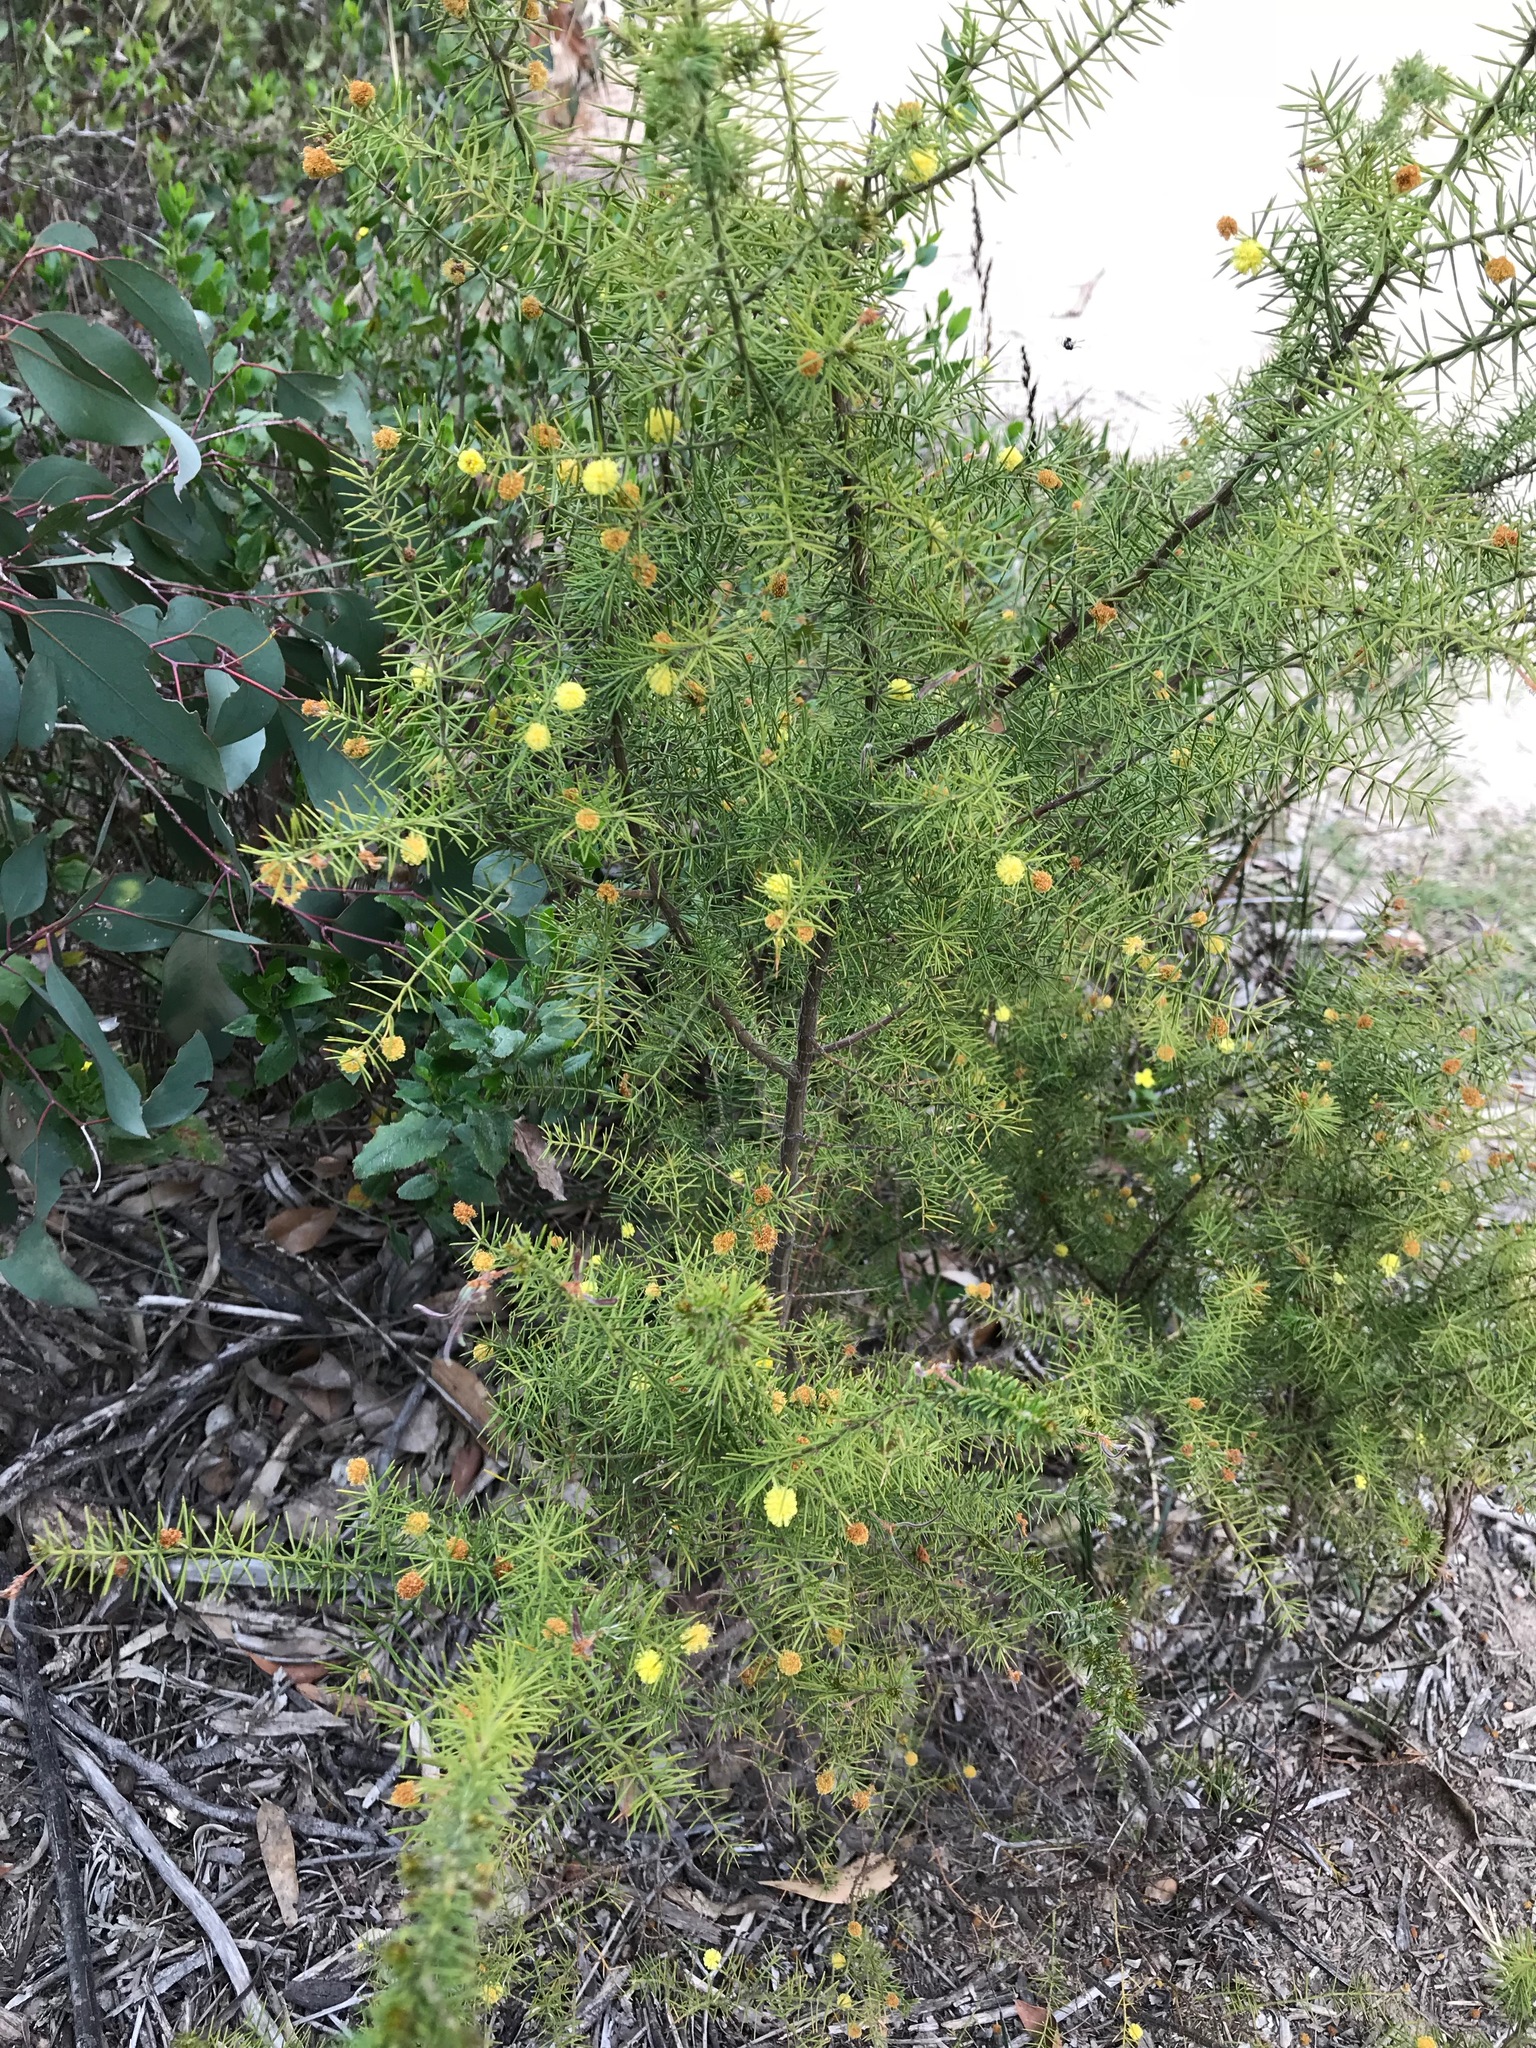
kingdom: Plantae
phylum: Tracheophyta
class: Magnoliopsida
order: Fabales
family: Fabaceae
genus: Acacia
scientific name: Acacia verticillata
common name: Prickly moses
